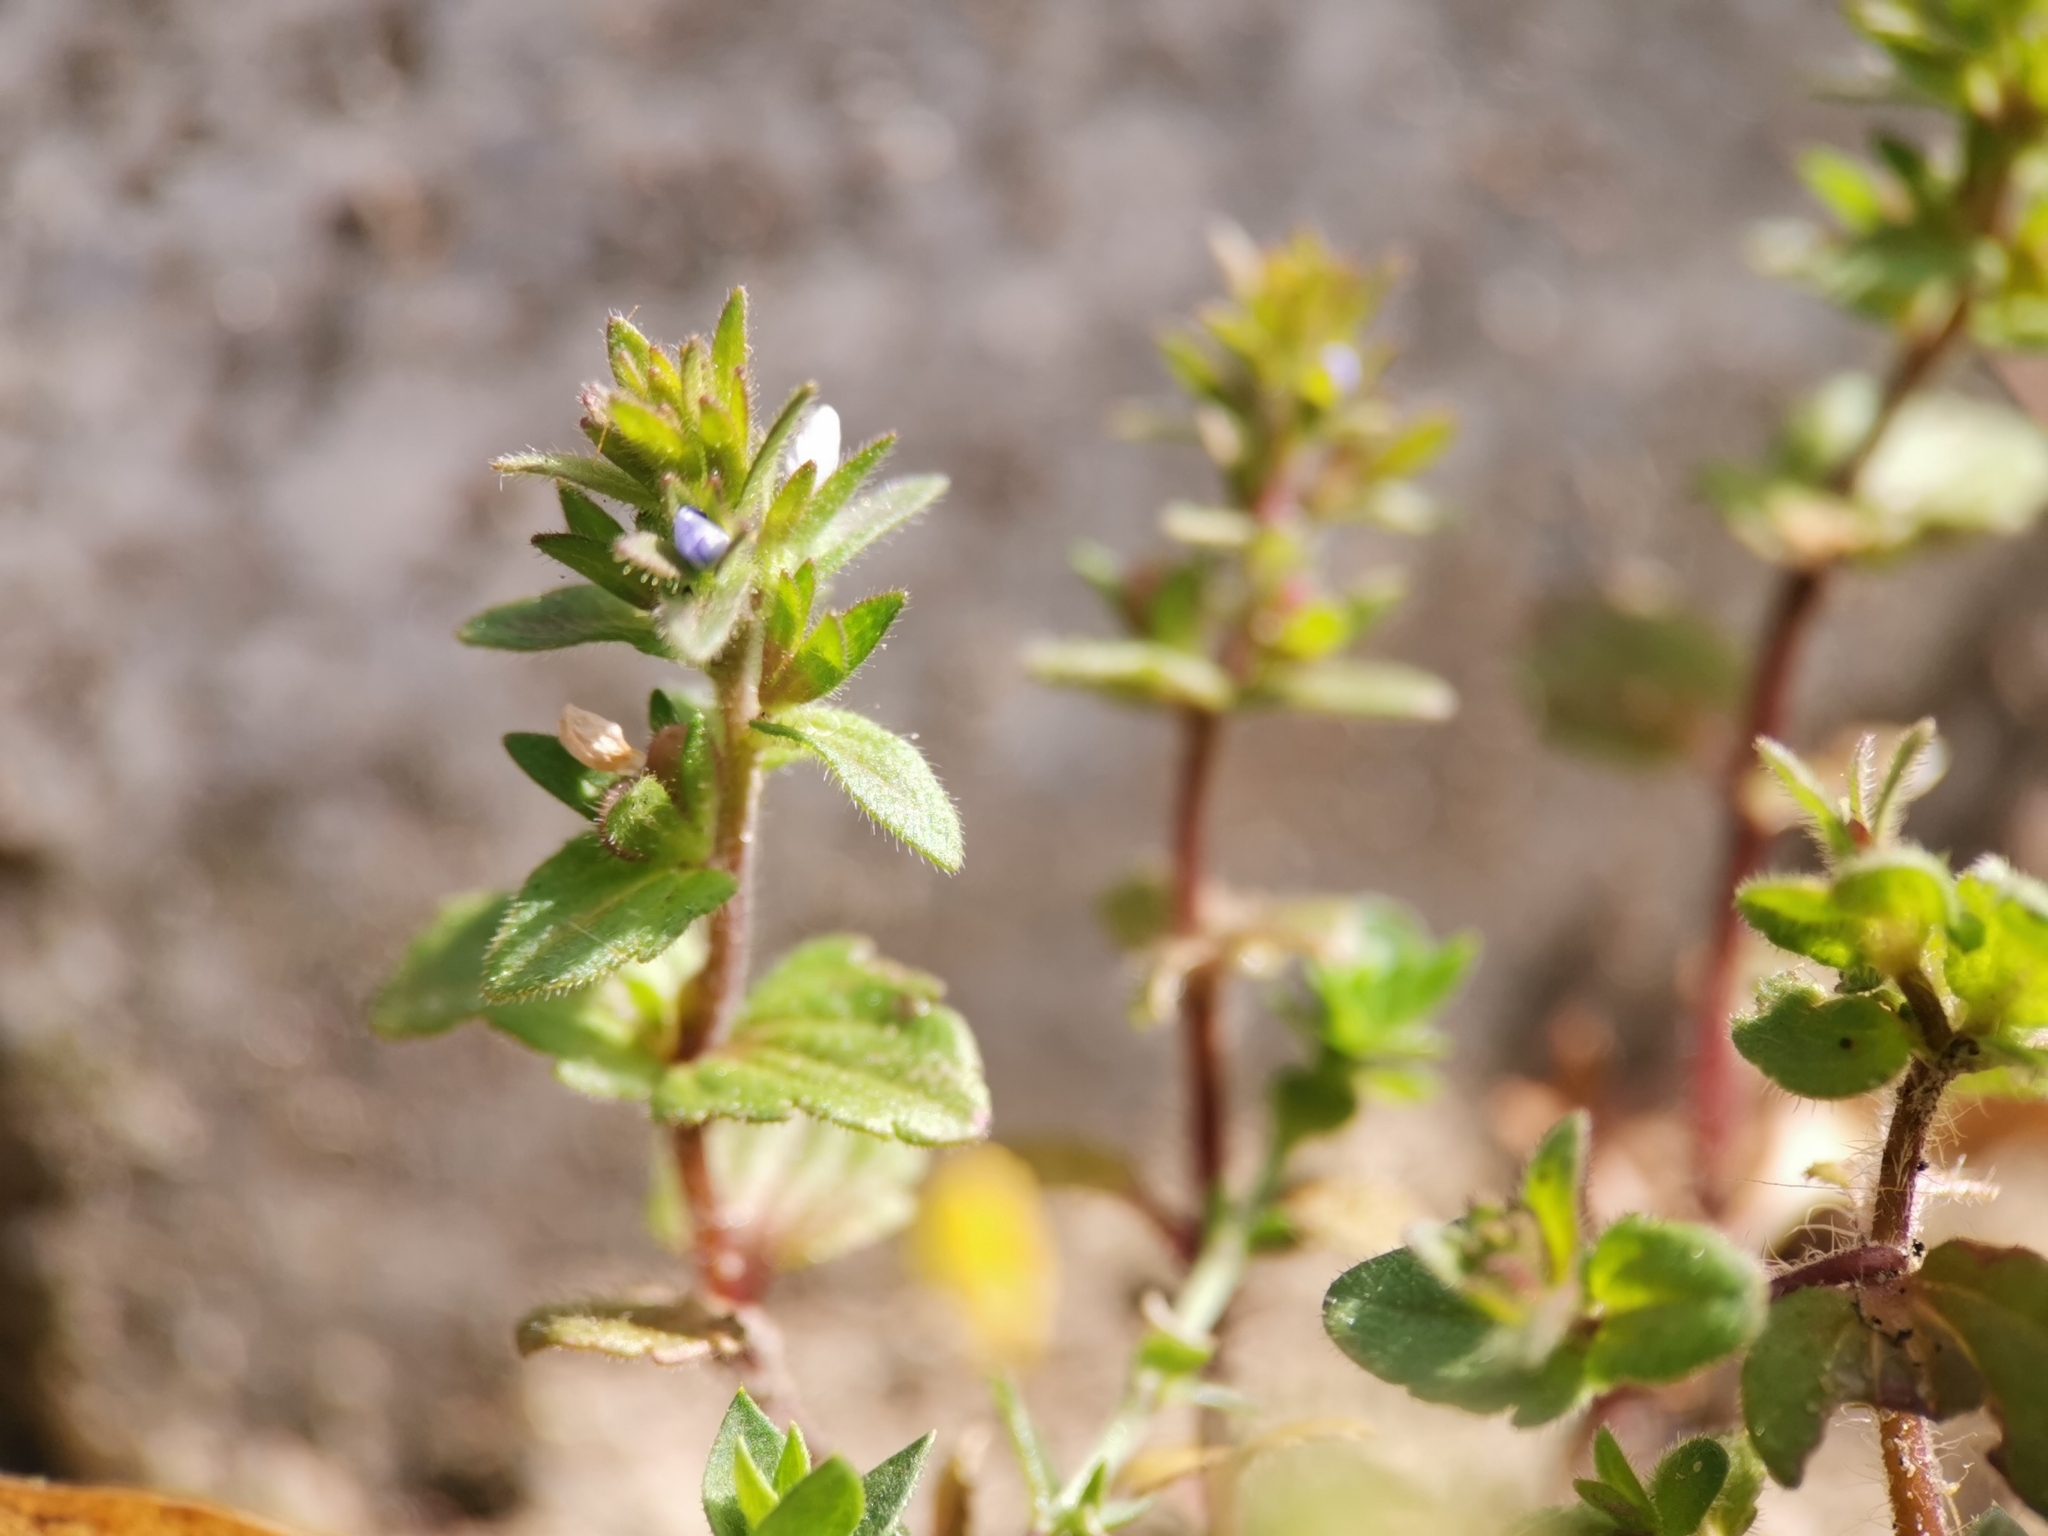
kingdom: Plantae
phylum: Tracheophyta
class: Magnoliopsida
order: Lamiales
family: Plantaginaceae
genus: Veronica
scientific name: Veronica arvensis
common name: Corn speedwell
